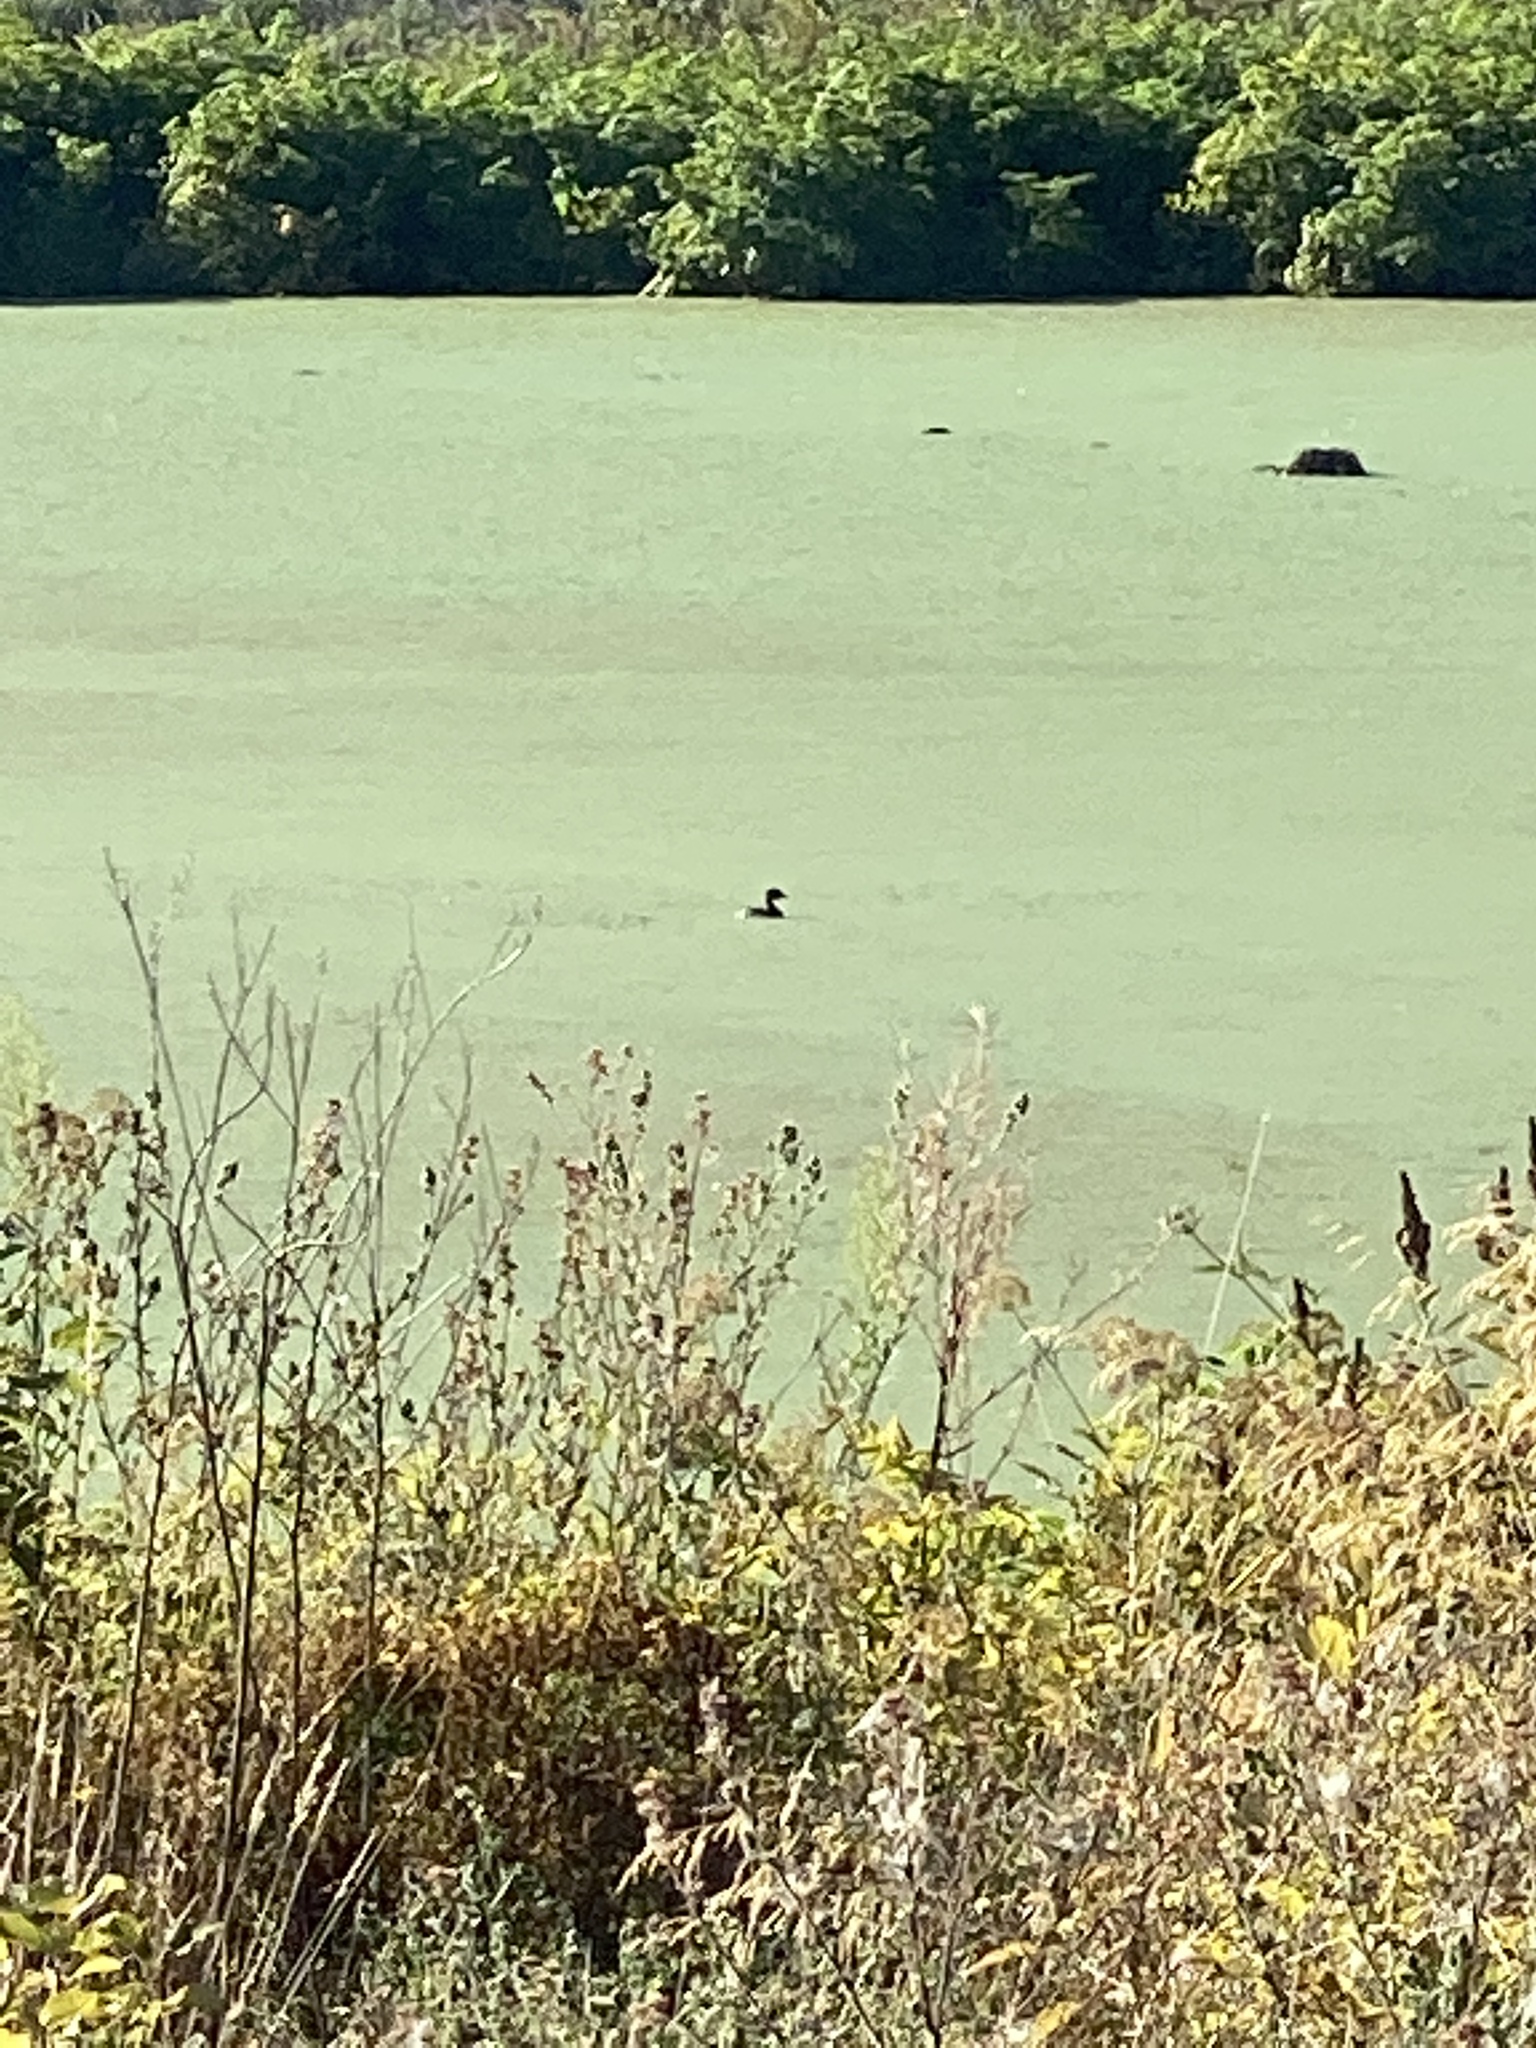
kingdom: Animalia
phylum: Chordata
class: Aves
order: Podicipediformes
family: Podicipedidae
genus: Podilymbus
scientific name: Podilymbus podiceps
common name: Pied-billed grebe
